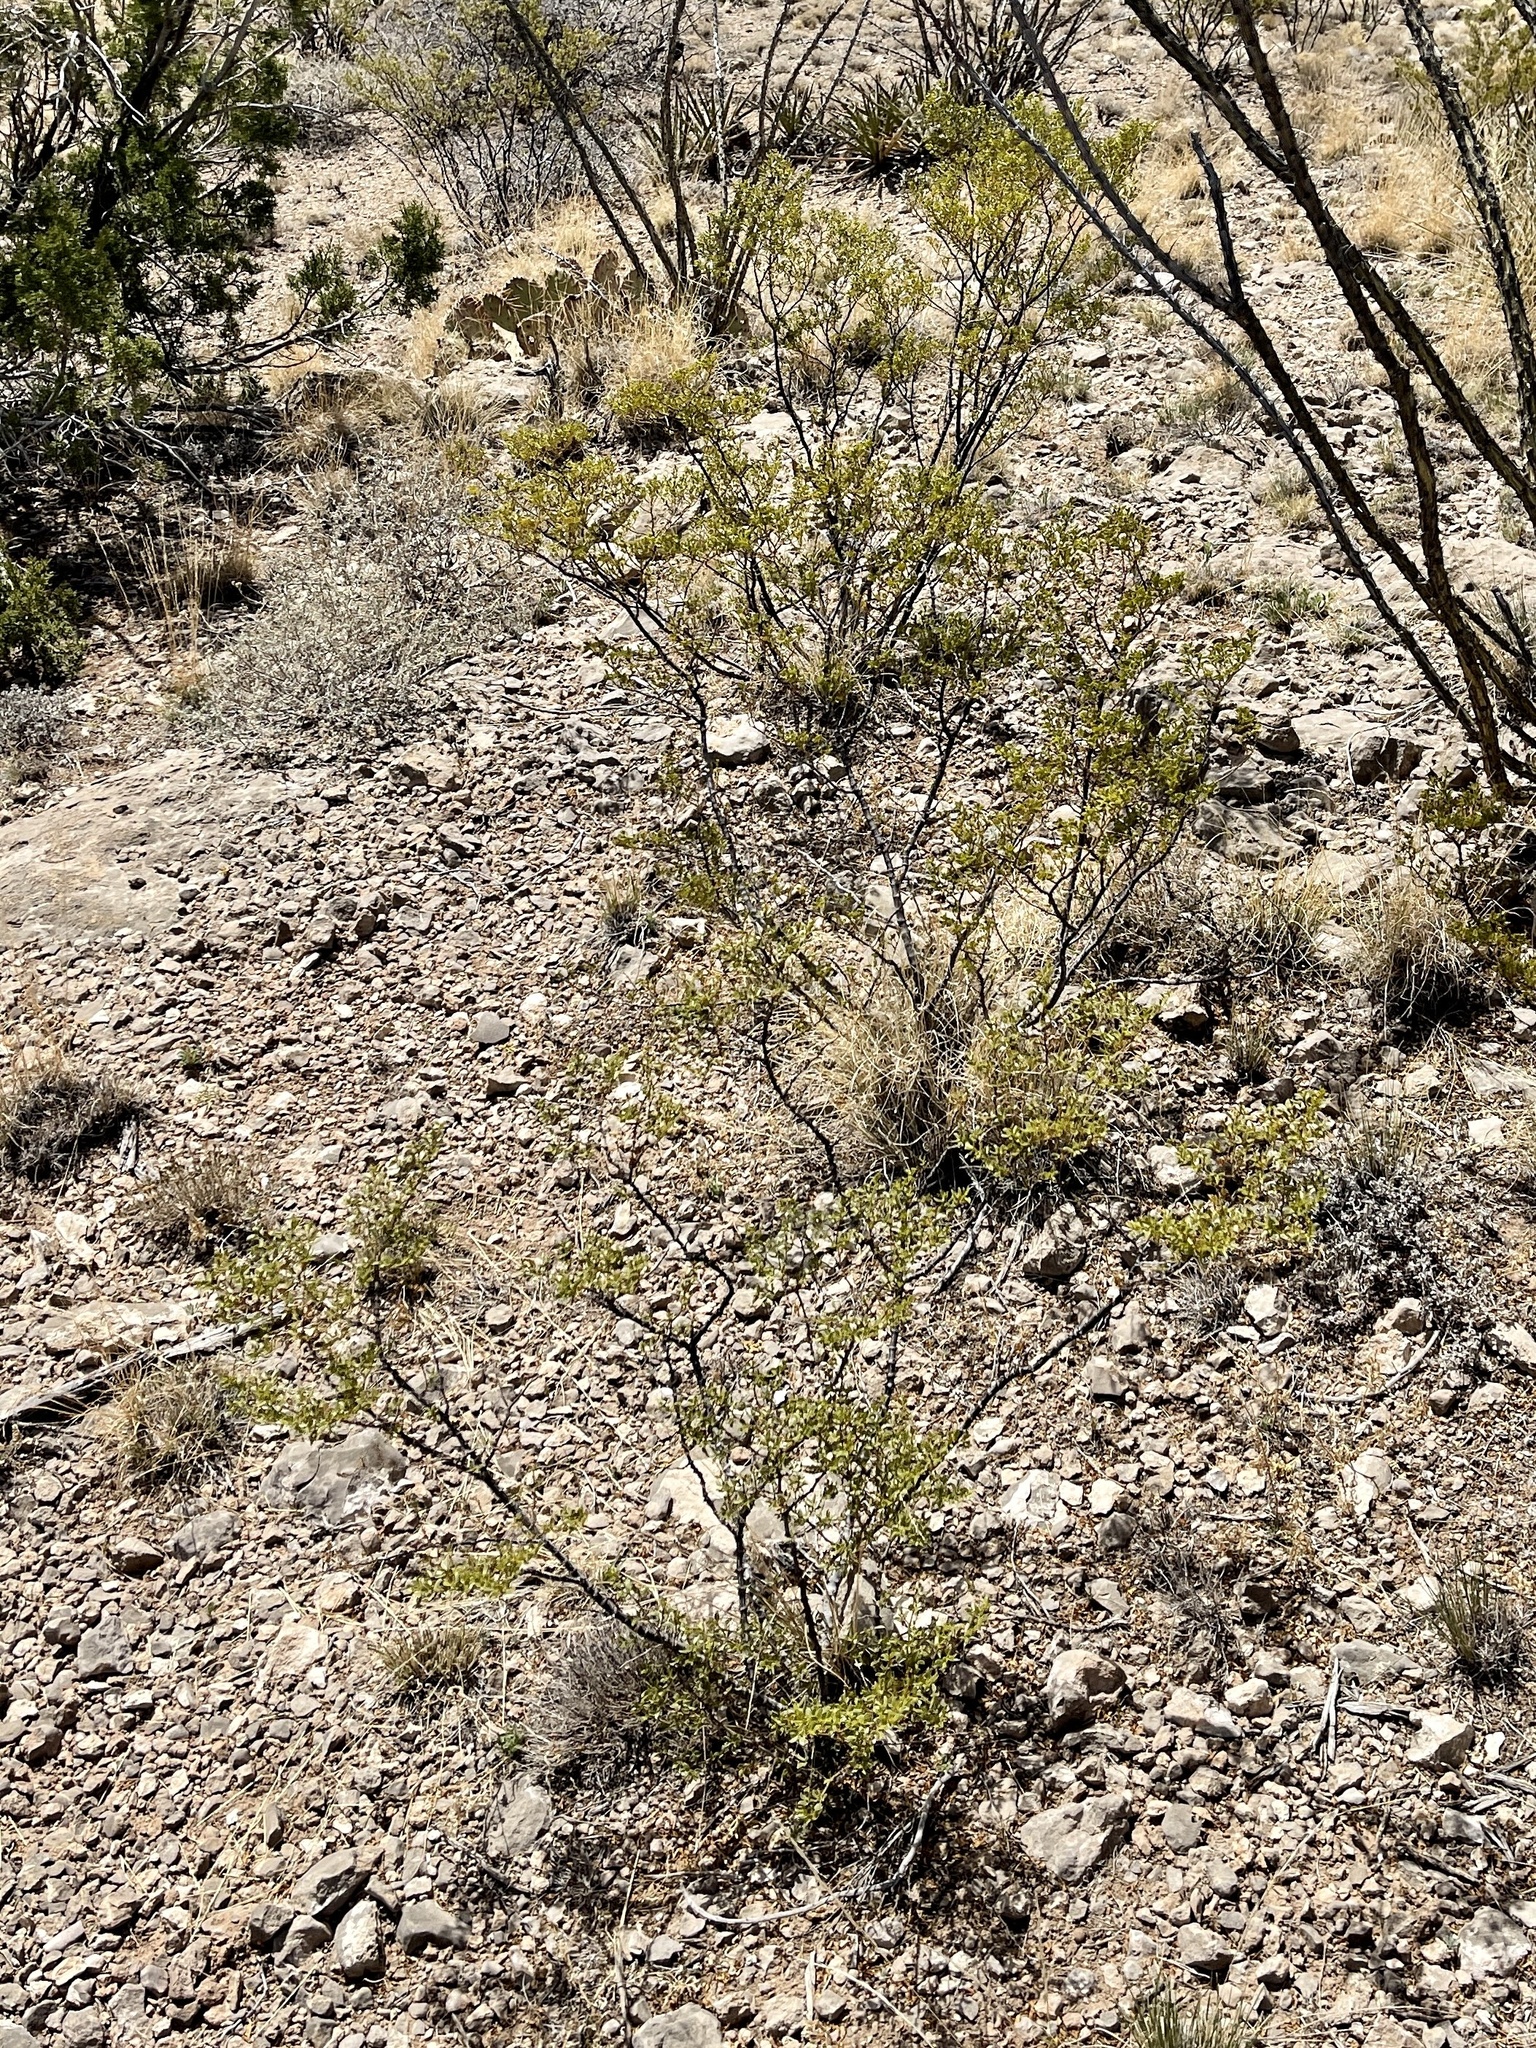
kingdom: Plantae
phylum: Tracheophyta
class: Magnoliopsida
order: Zygophyllales
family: Zygophyllaceae
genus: Larrea
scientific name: Larrea tridentata
